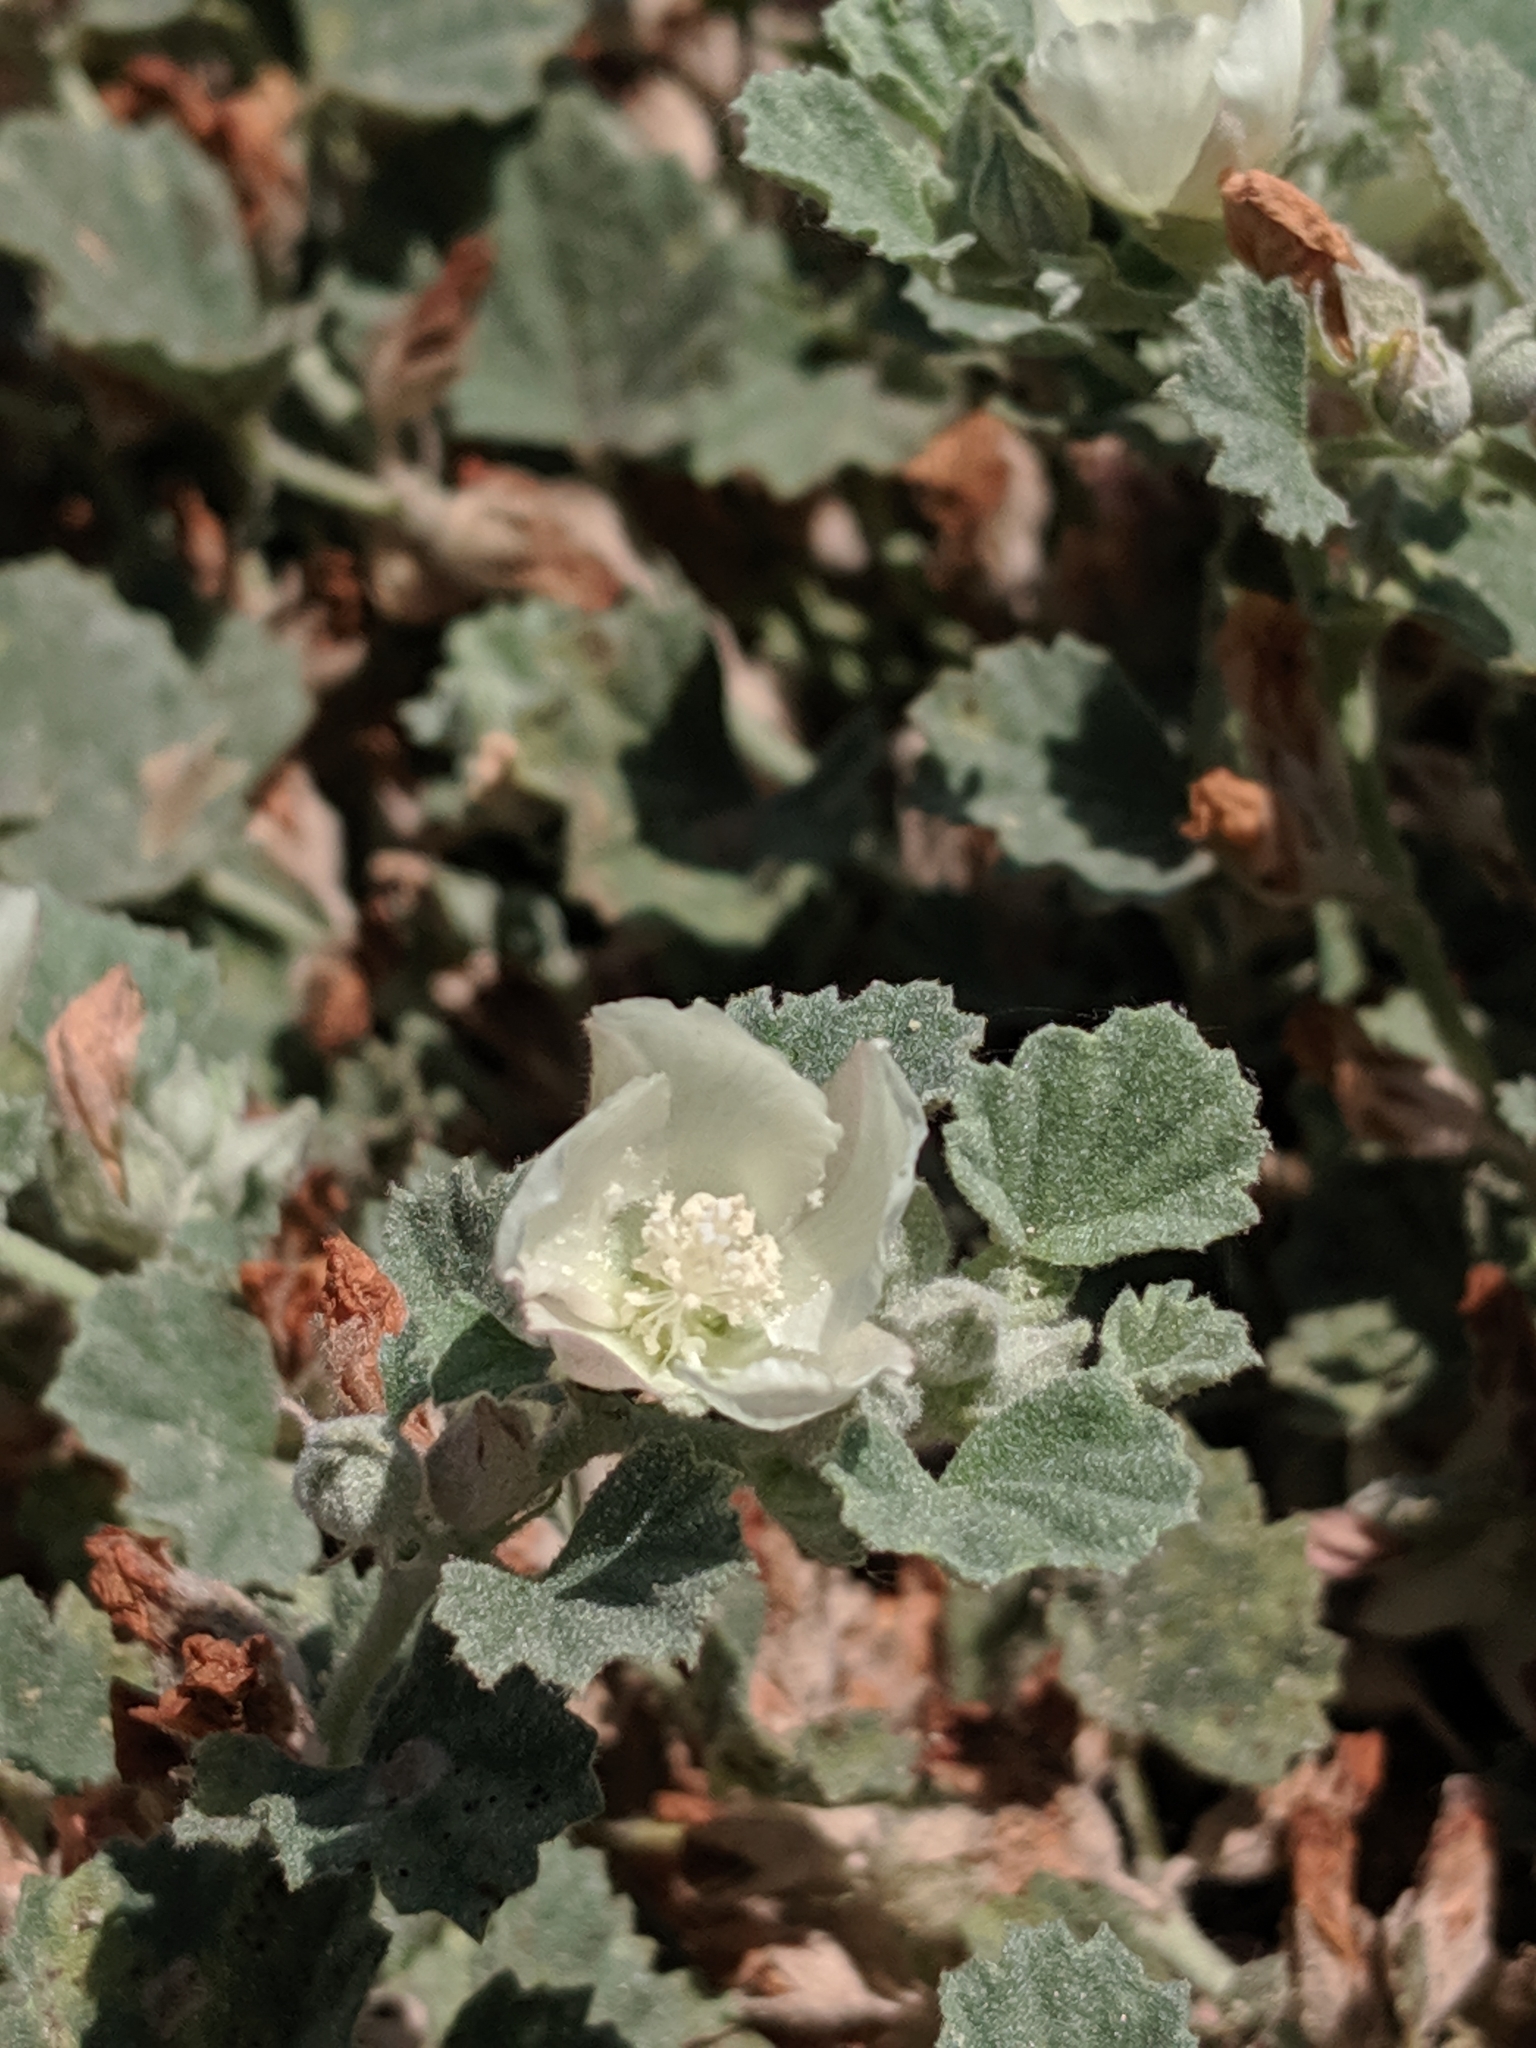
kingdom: Plantae
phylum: Tracheophyta
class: Magnoliopsida
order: Malvales
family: Malvaceae
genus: Malvella
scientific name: Malvella leprosa
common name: Alkali-mallow
